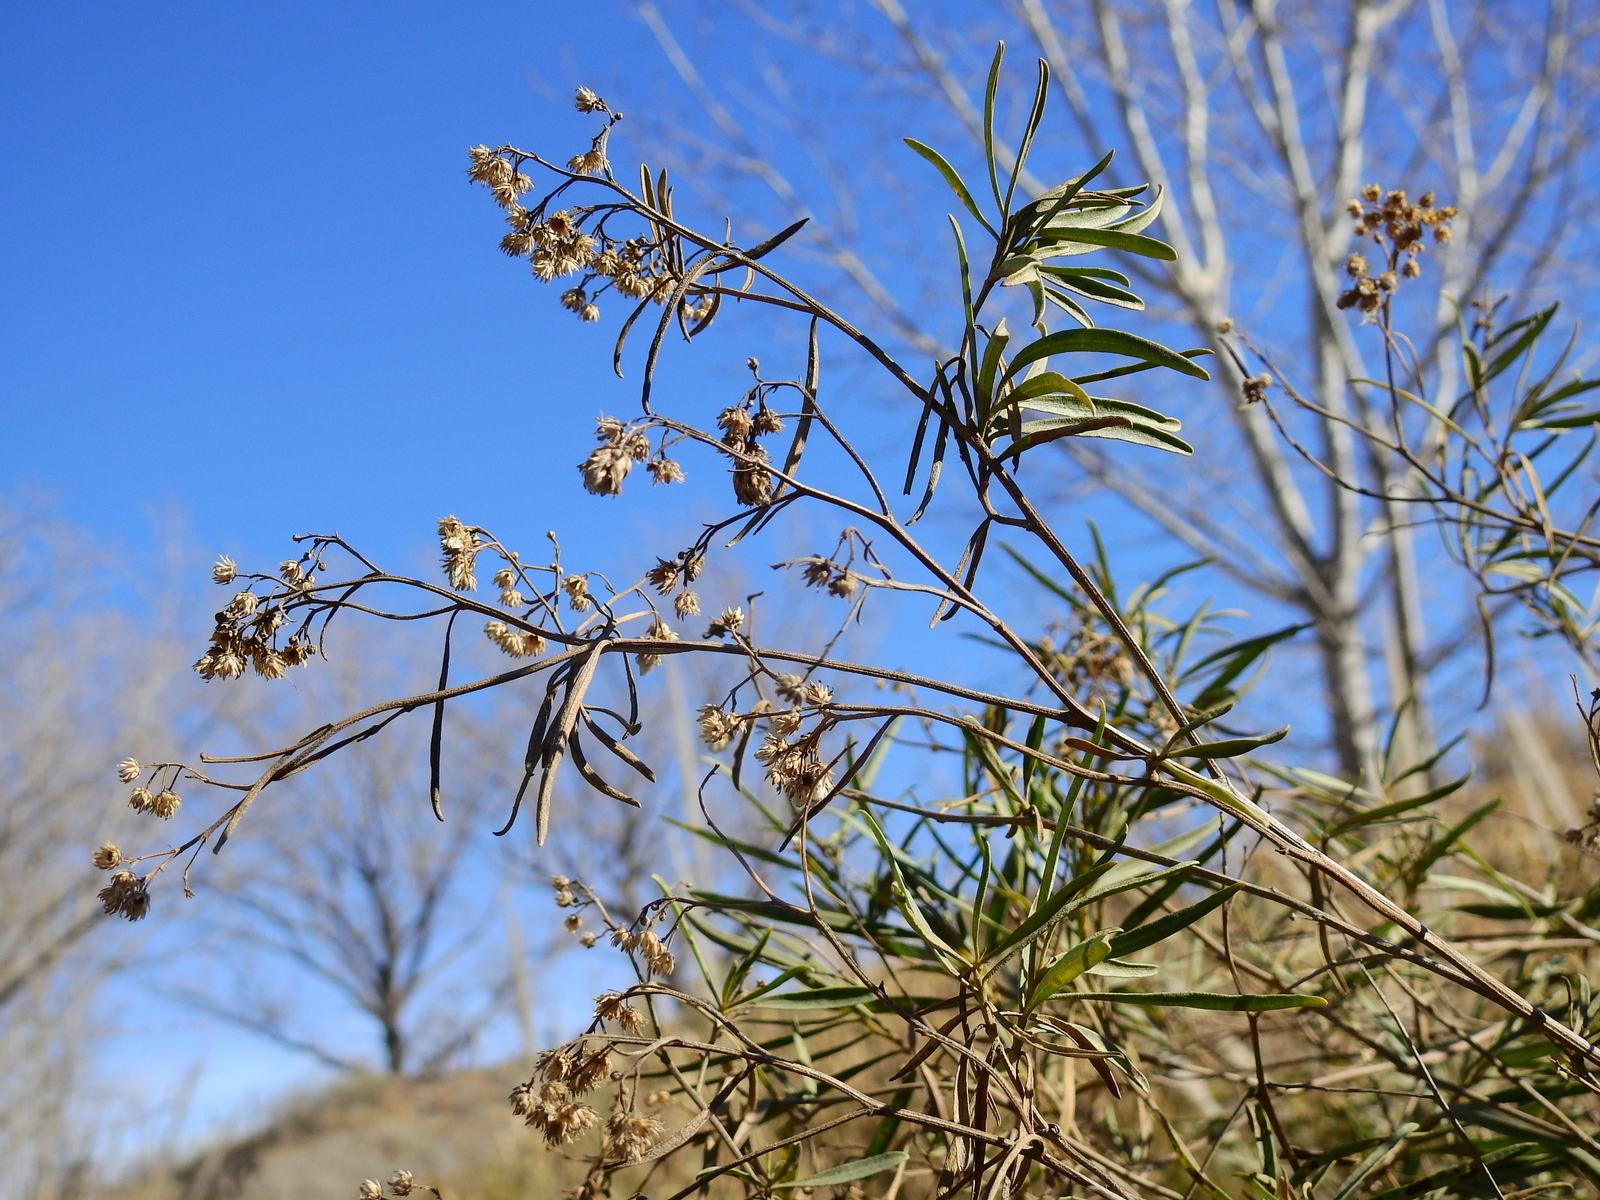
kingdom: Plantae
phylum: Tracheophyta
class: Magnoliopsida
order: Asterales
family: Asteraceae
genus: Baccharis
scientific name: Baccharis salicifolia
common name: Sticky baccharis
